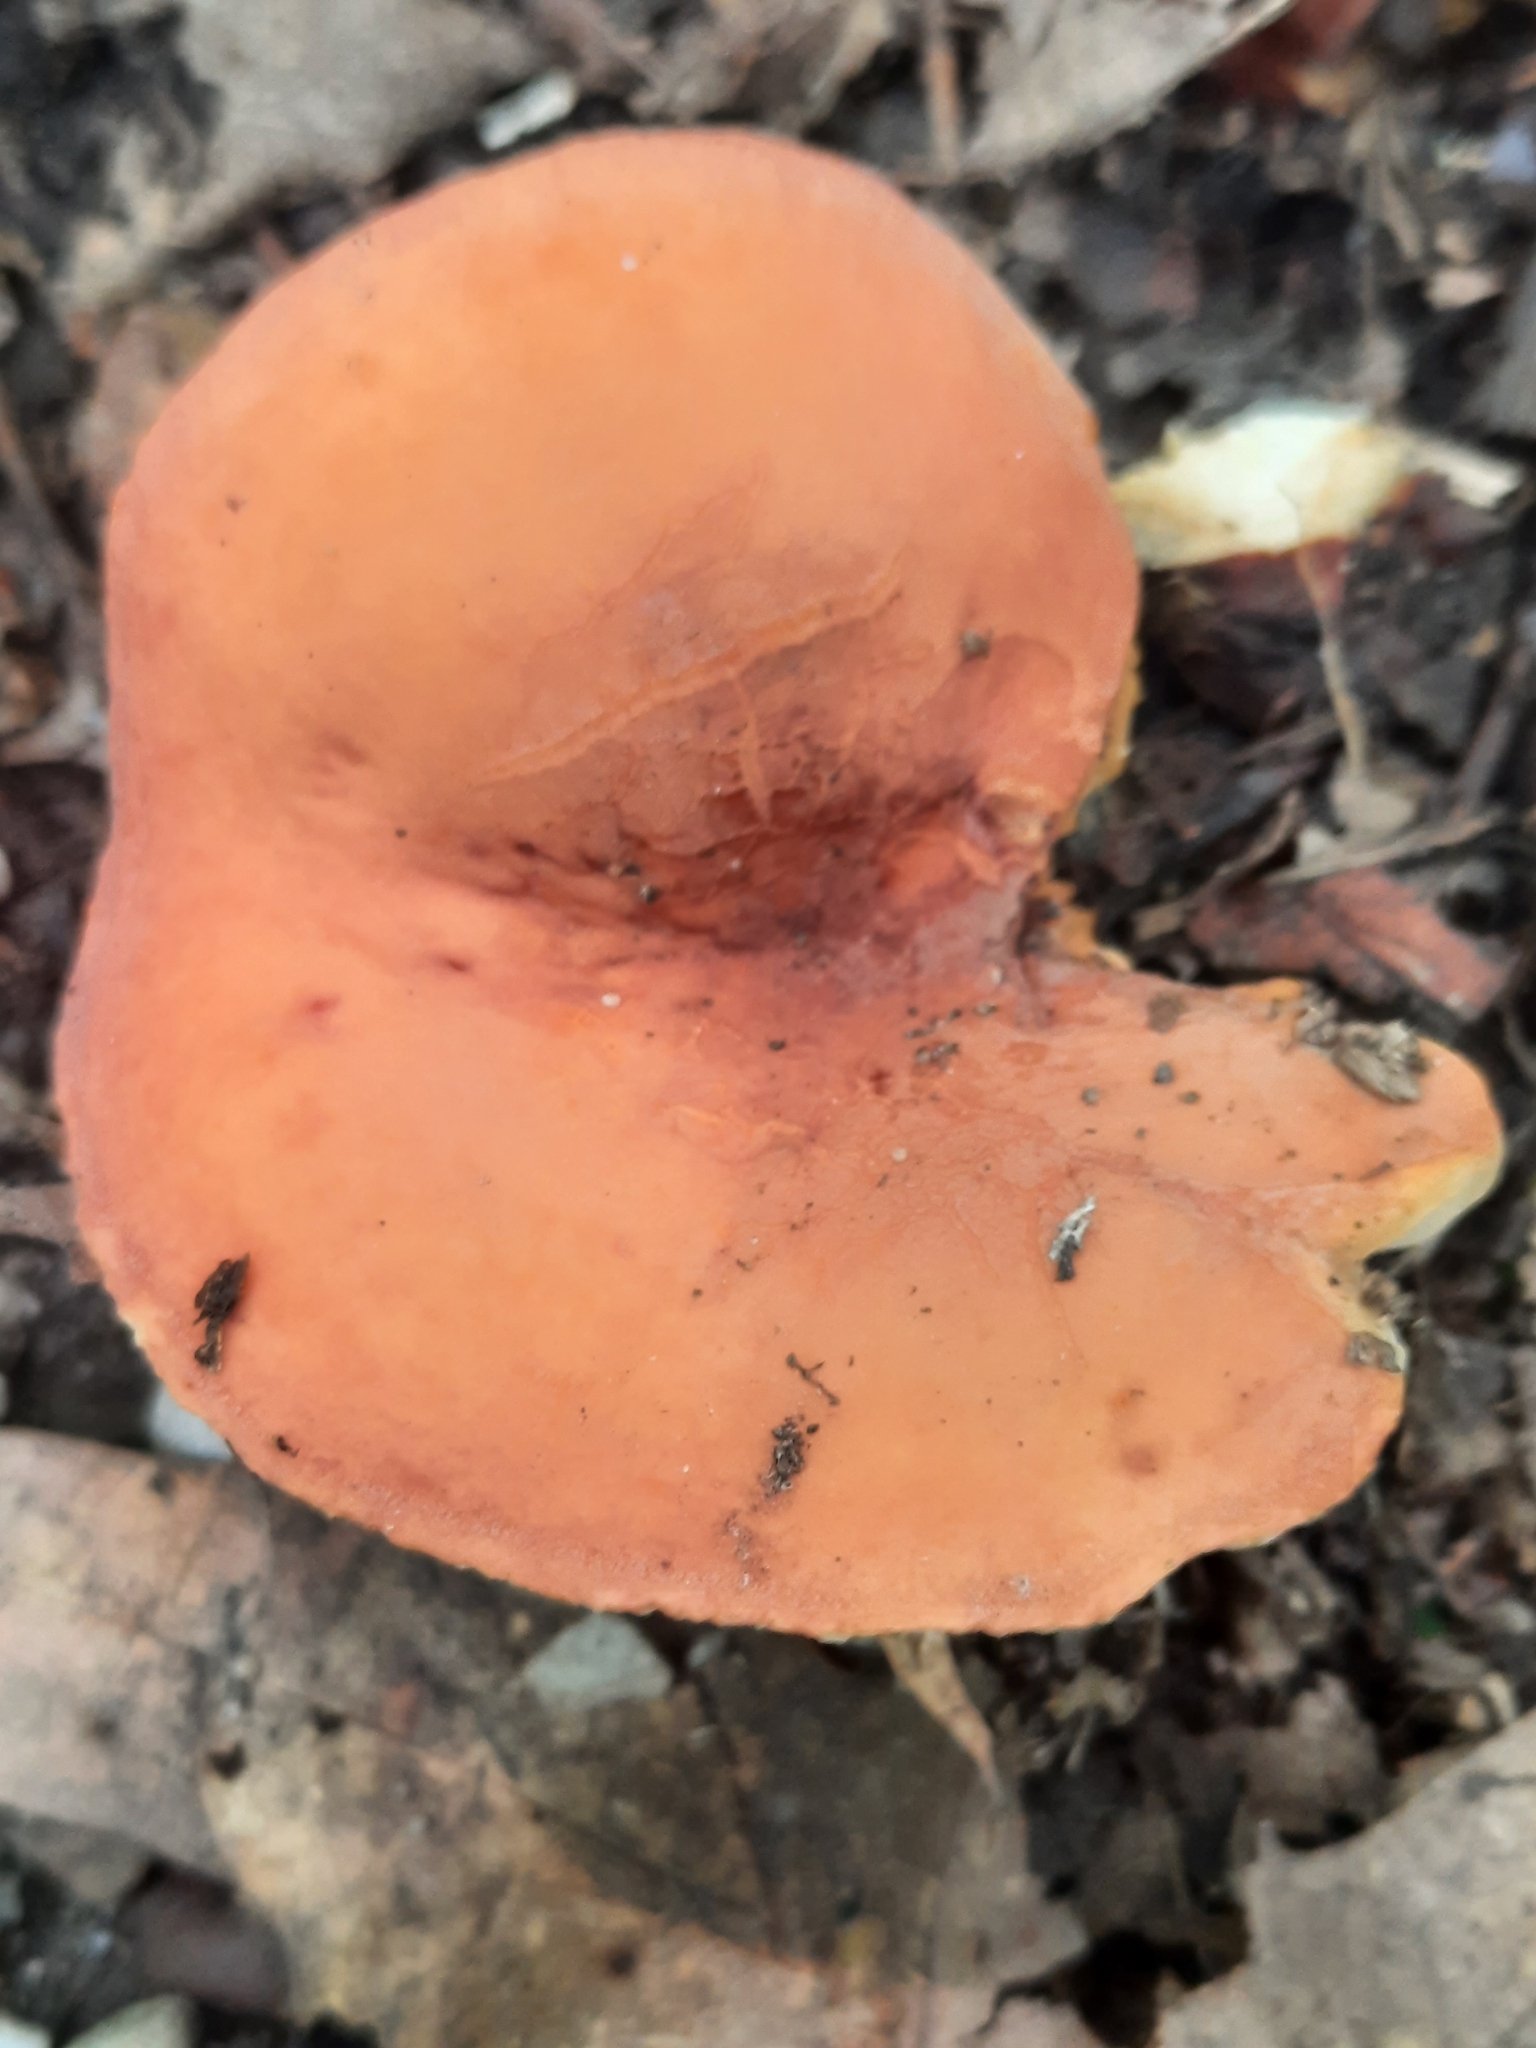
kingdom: Fungi
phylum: Basidiomycota
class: Agaricomycetes
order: Russulales
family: Russulaceae
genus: Lactarius
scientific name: Lactarius hygrophoroides
